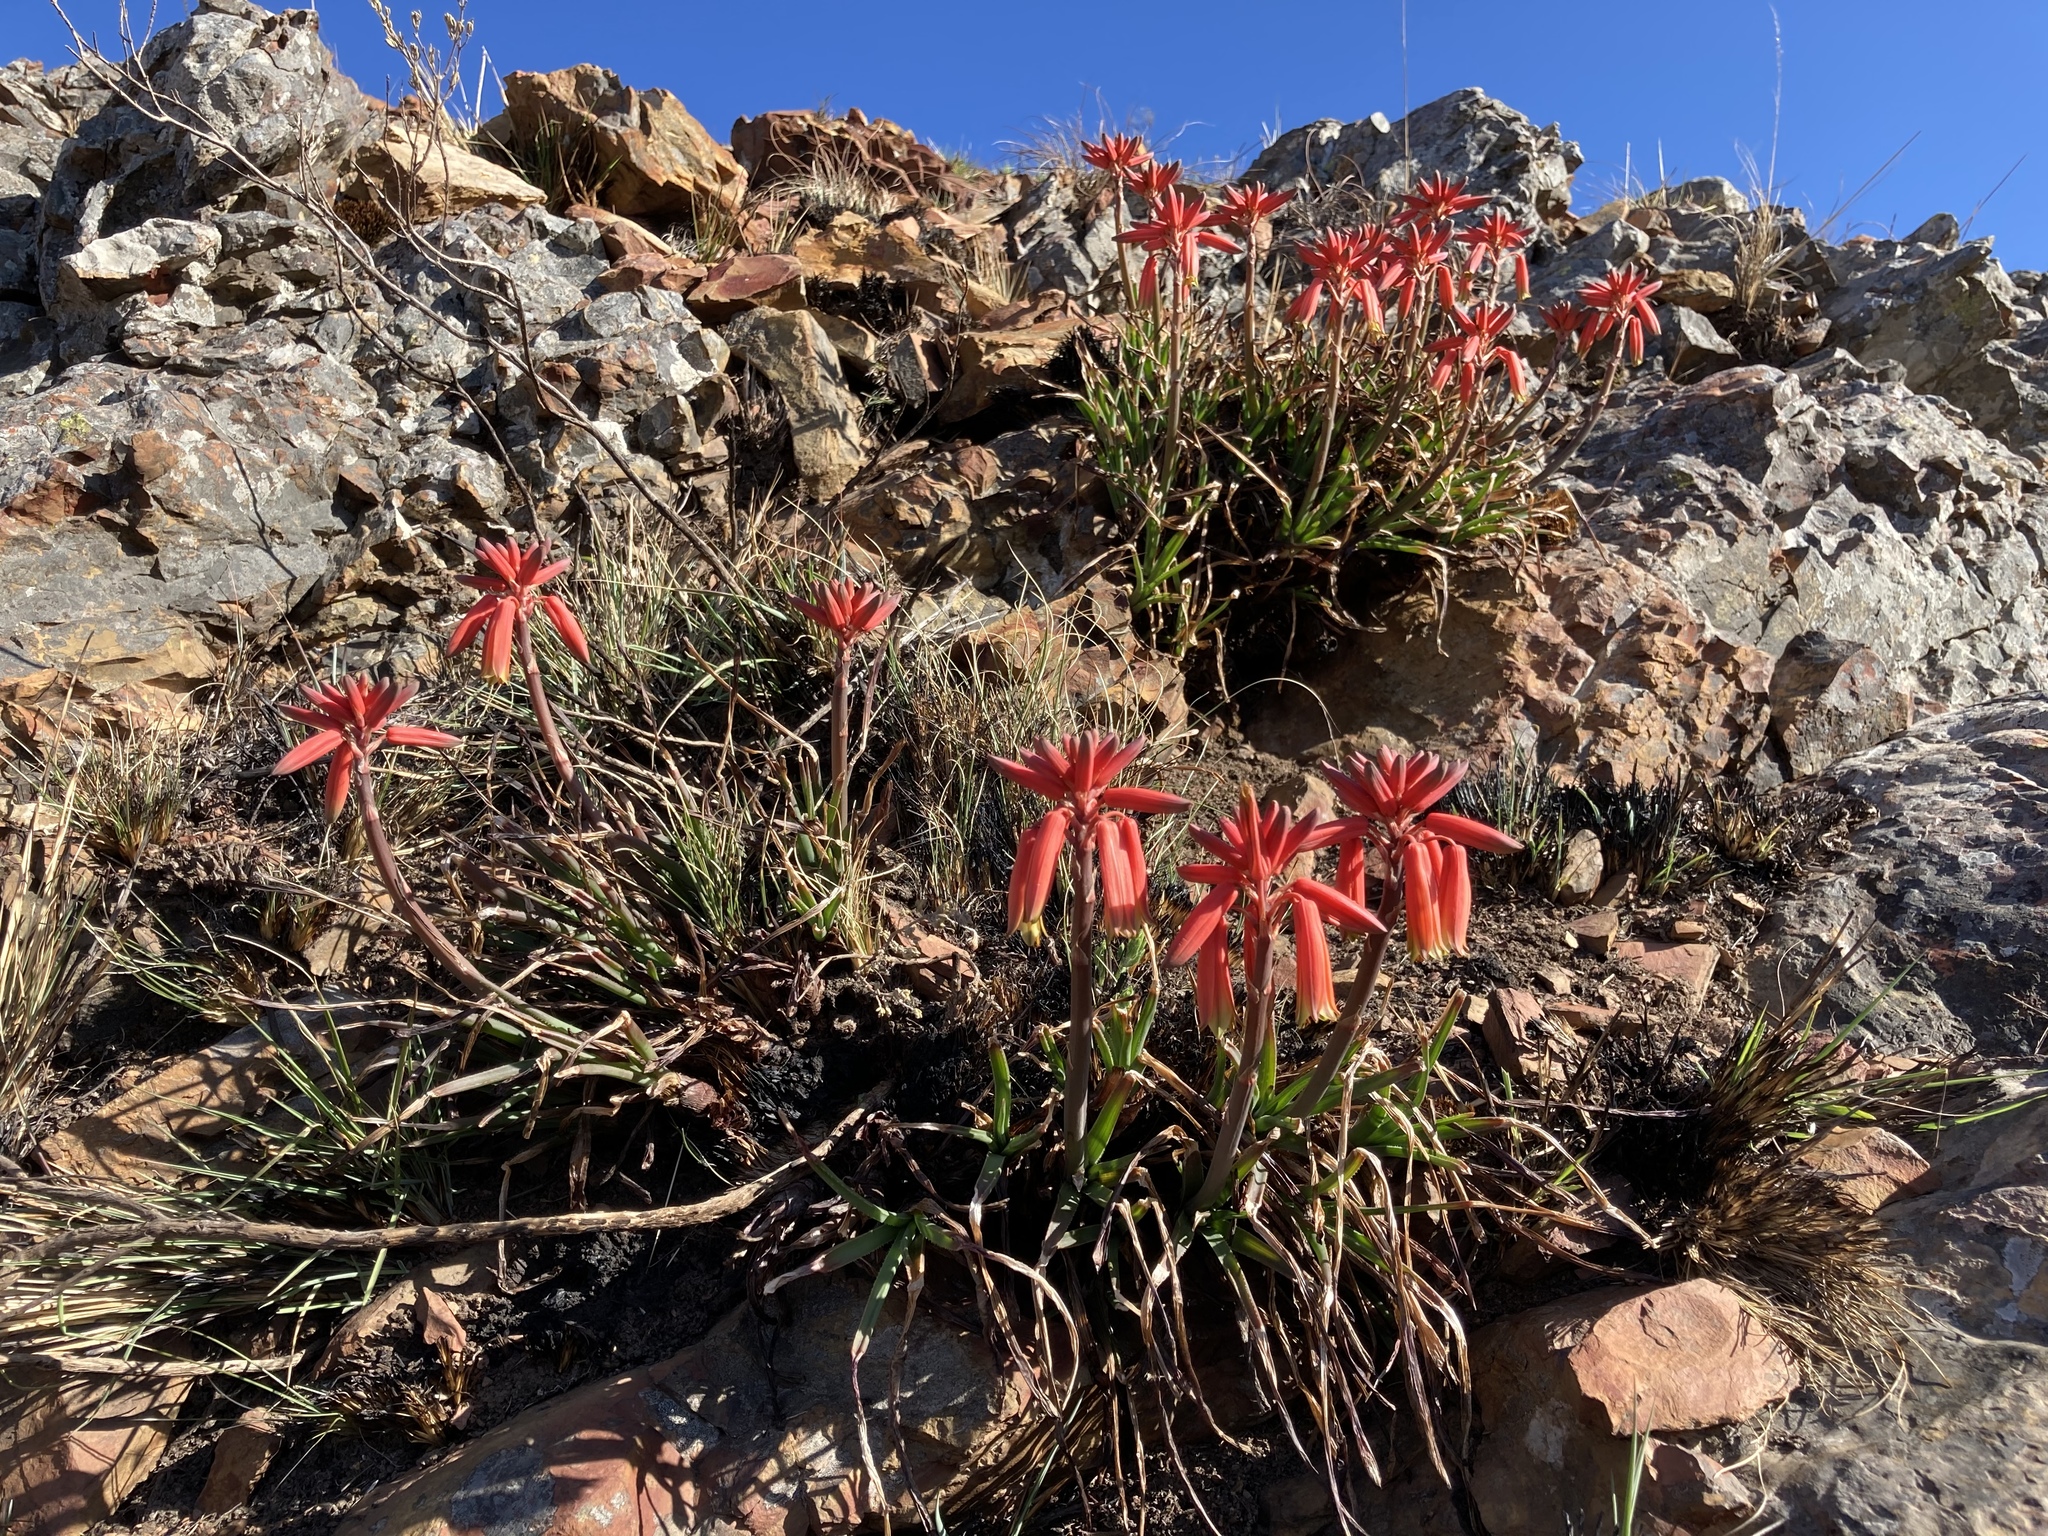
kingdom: Plantae
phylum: Tracheophyta
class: Liliopsida
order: Asparagales
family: Asphodelaceae
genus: Aloe
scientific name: Aloe chortolirioides
